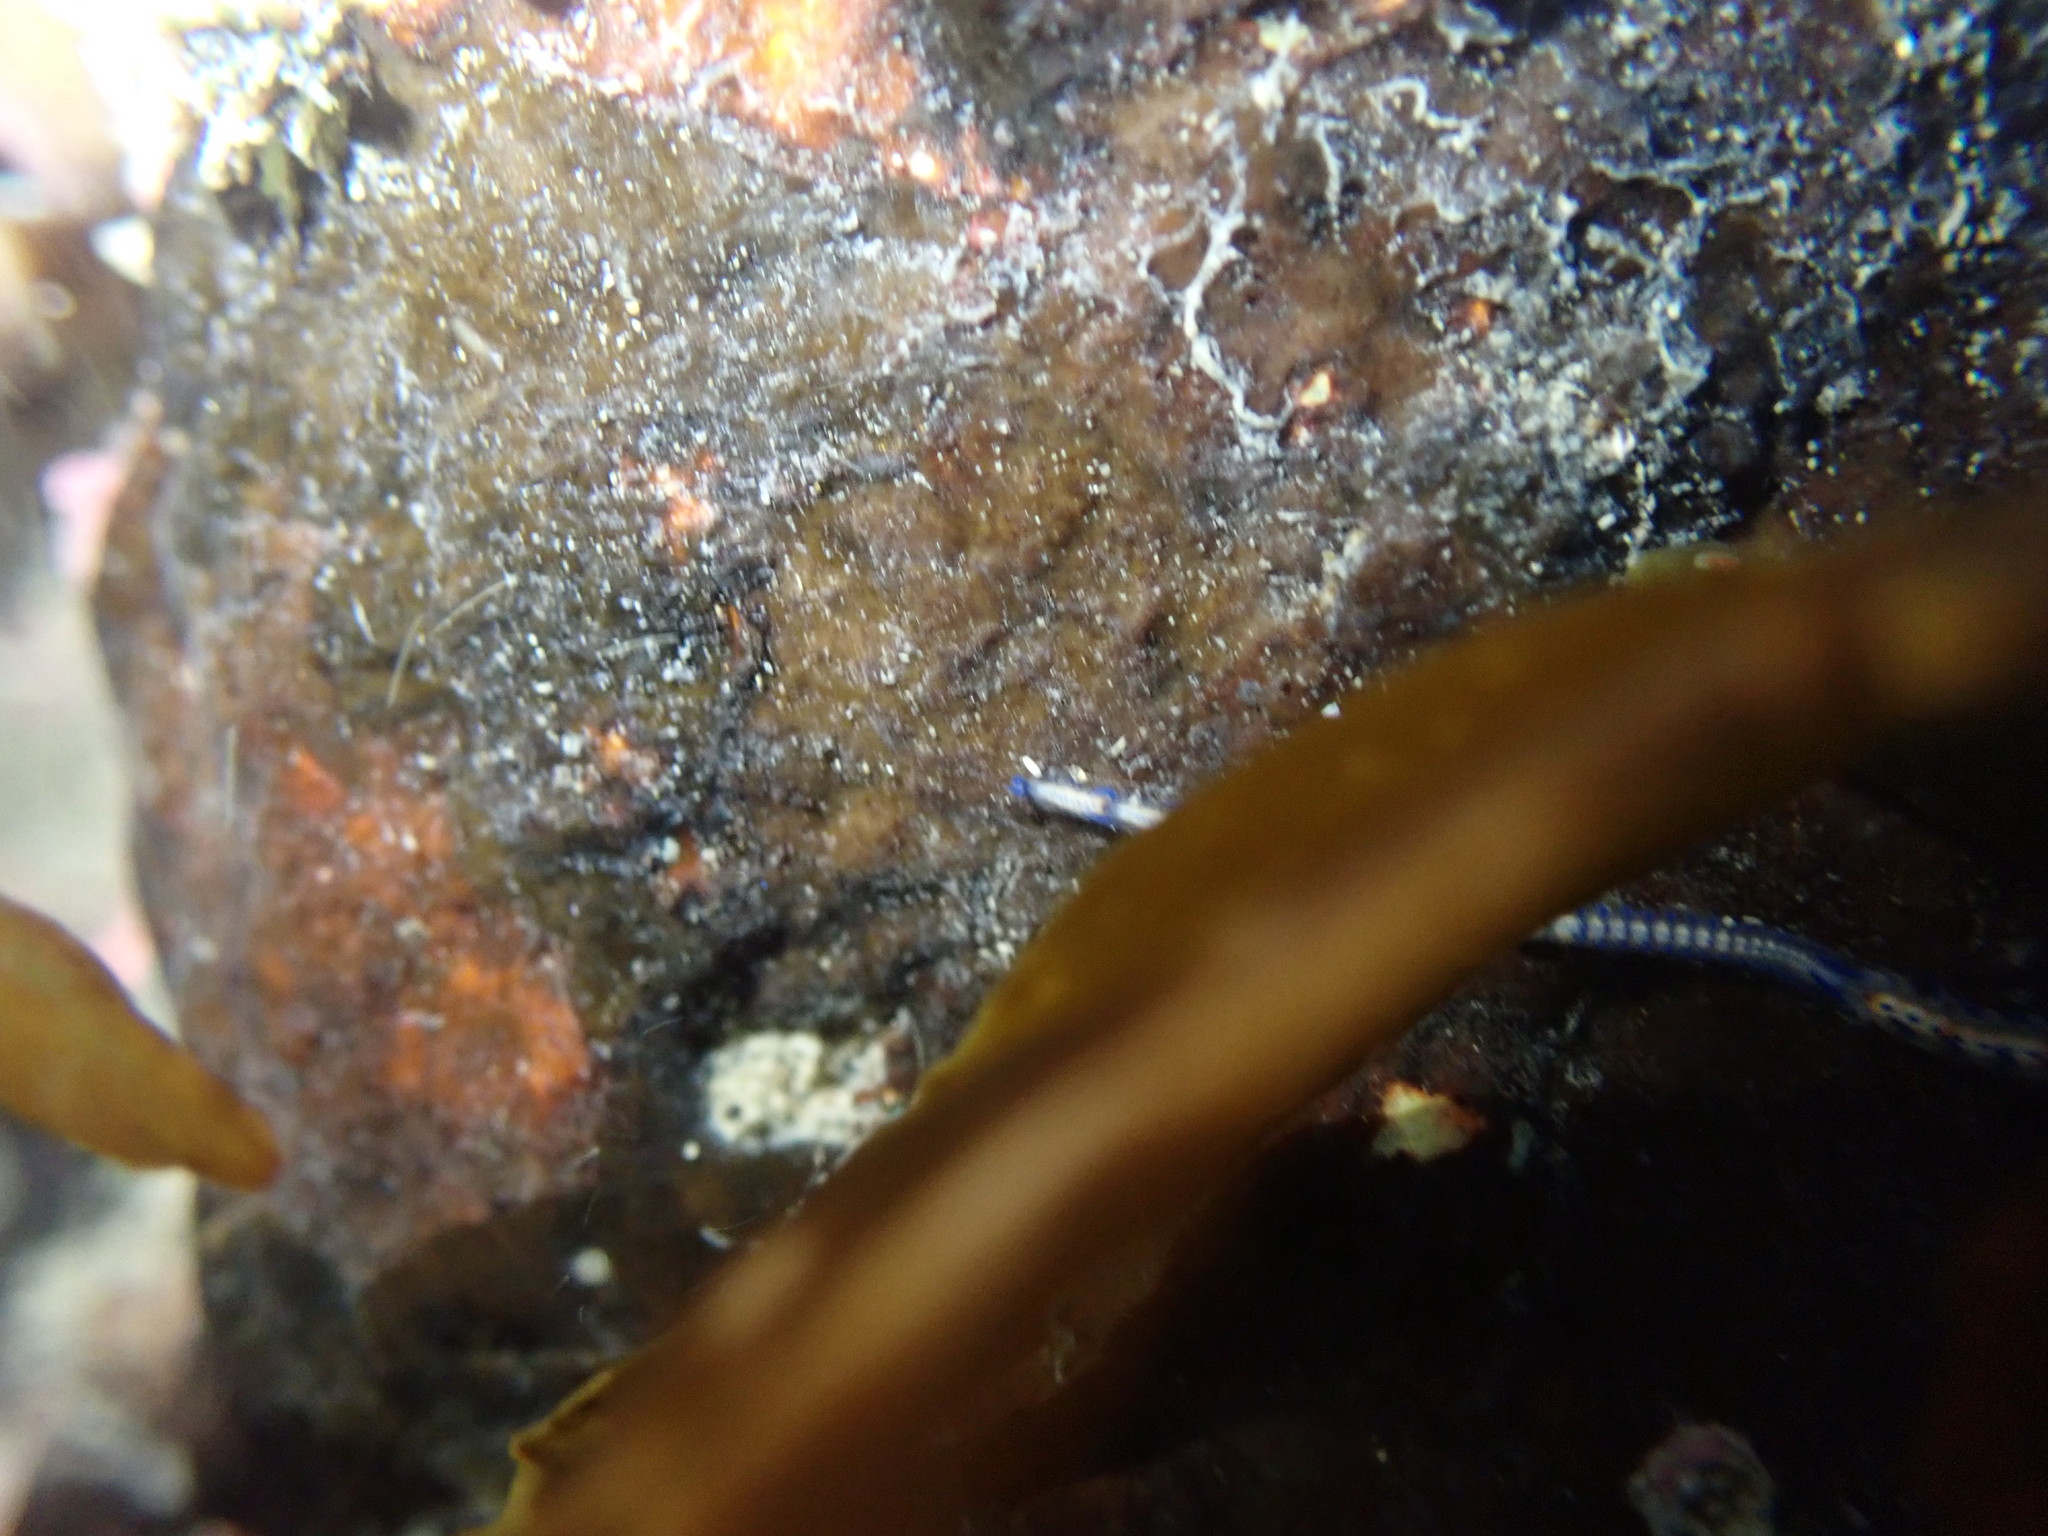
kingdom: Animalia
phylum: Annelida
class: Polychaeta
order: Phyllodocida
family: Syllidae
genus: Myrianida
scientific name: Myrianida pachycera
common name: Syllid polychaete
